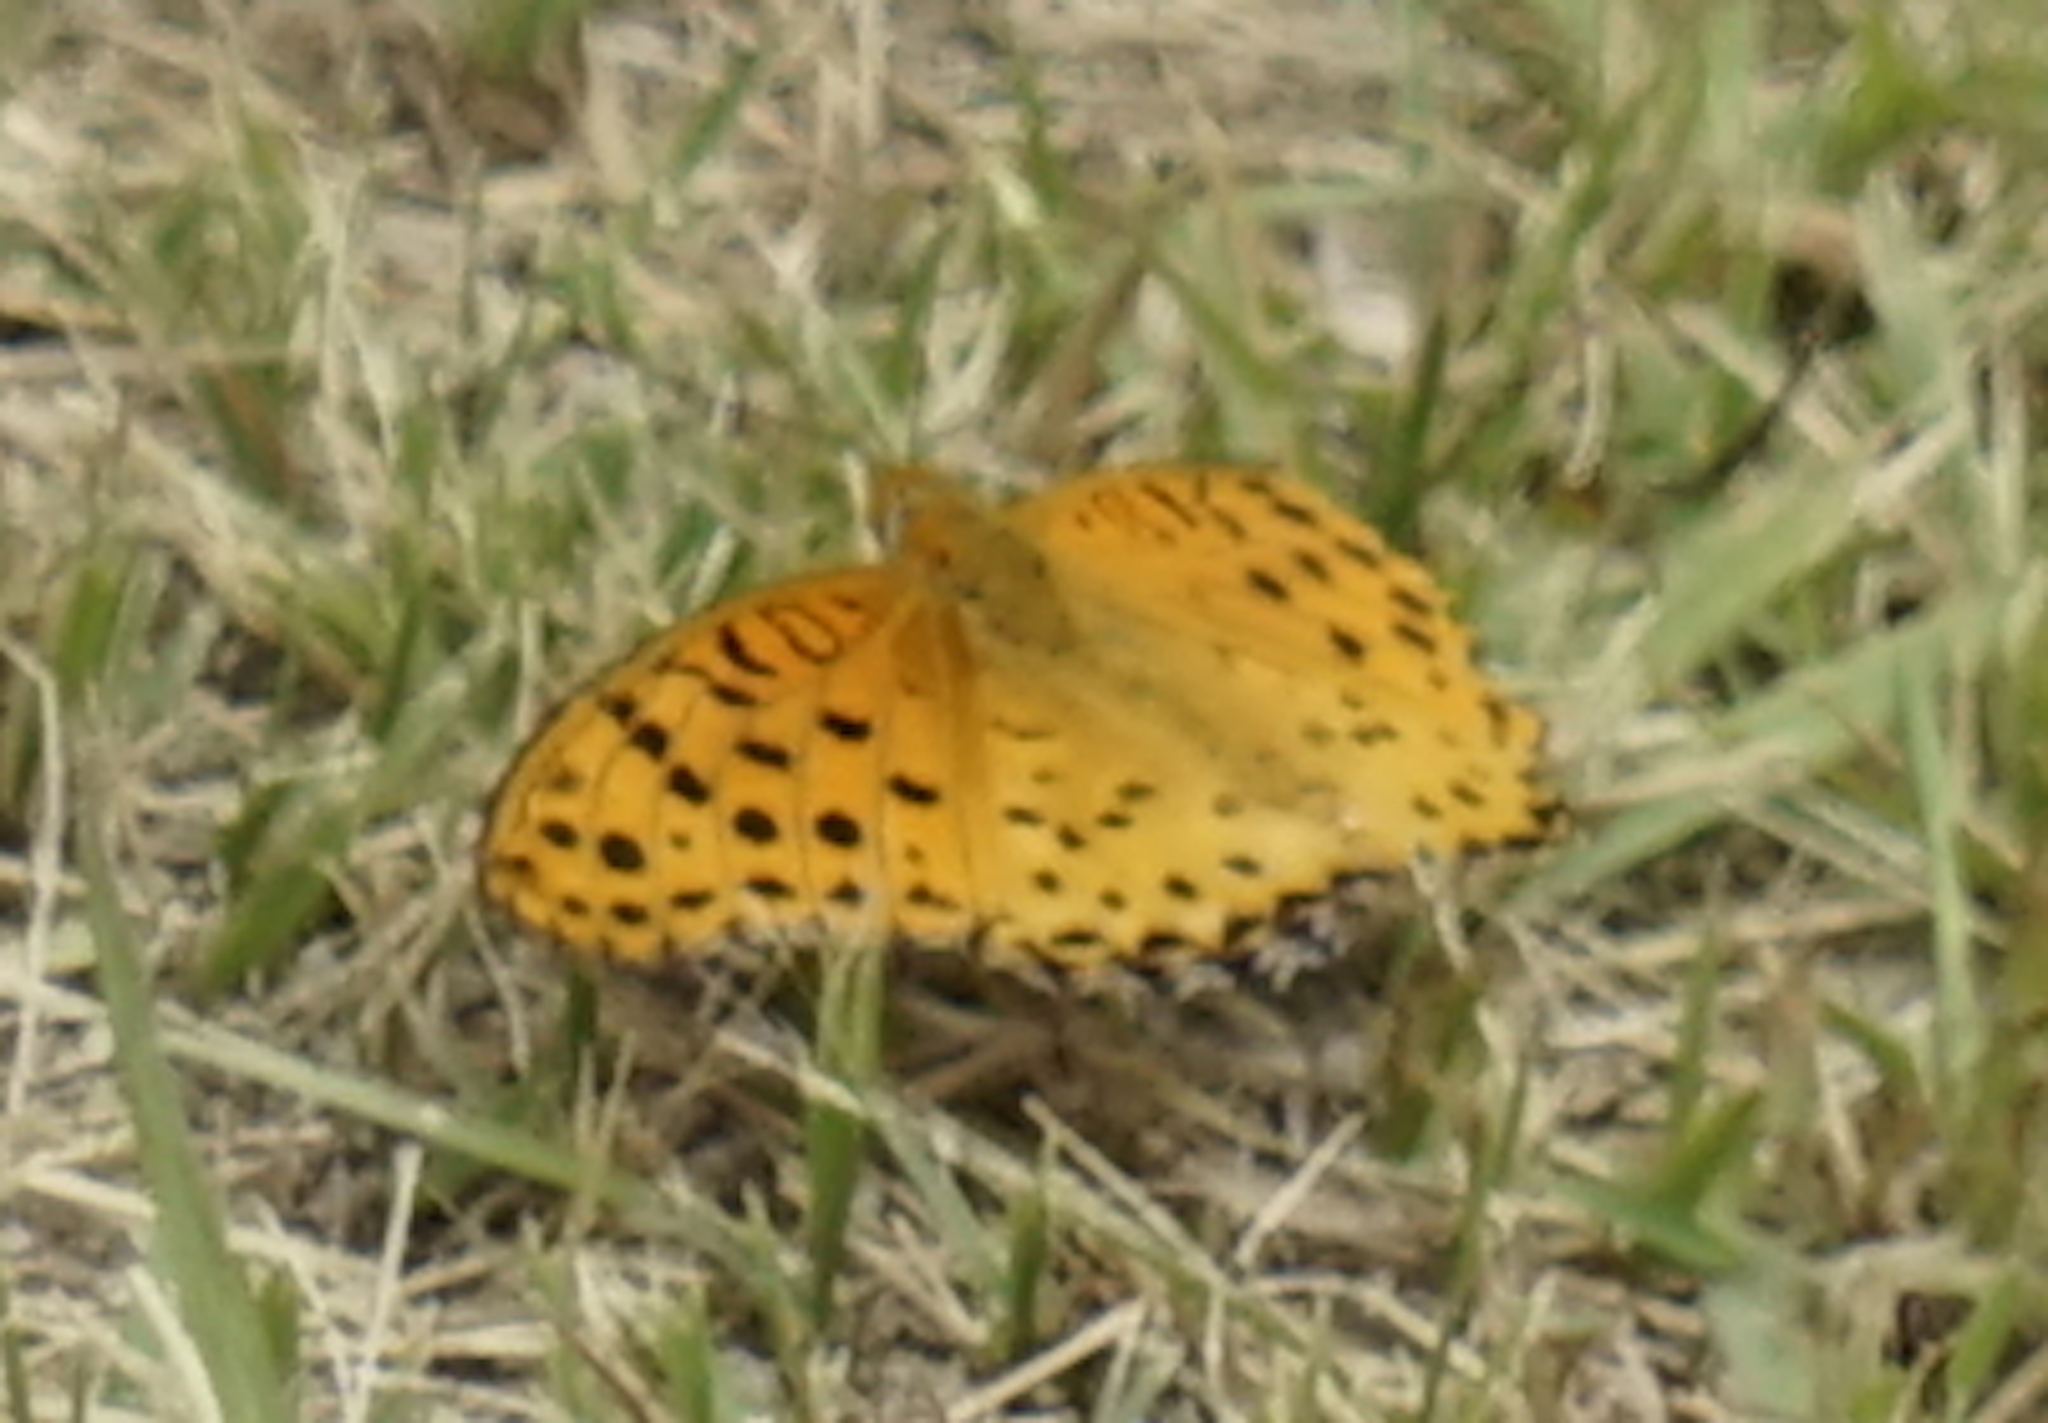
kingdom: Animalia
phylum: Arthropoda
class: Insecta
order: Lepidoptera
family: Nymphalidae
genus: Argynnis
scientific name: Argynnis hyperbius
